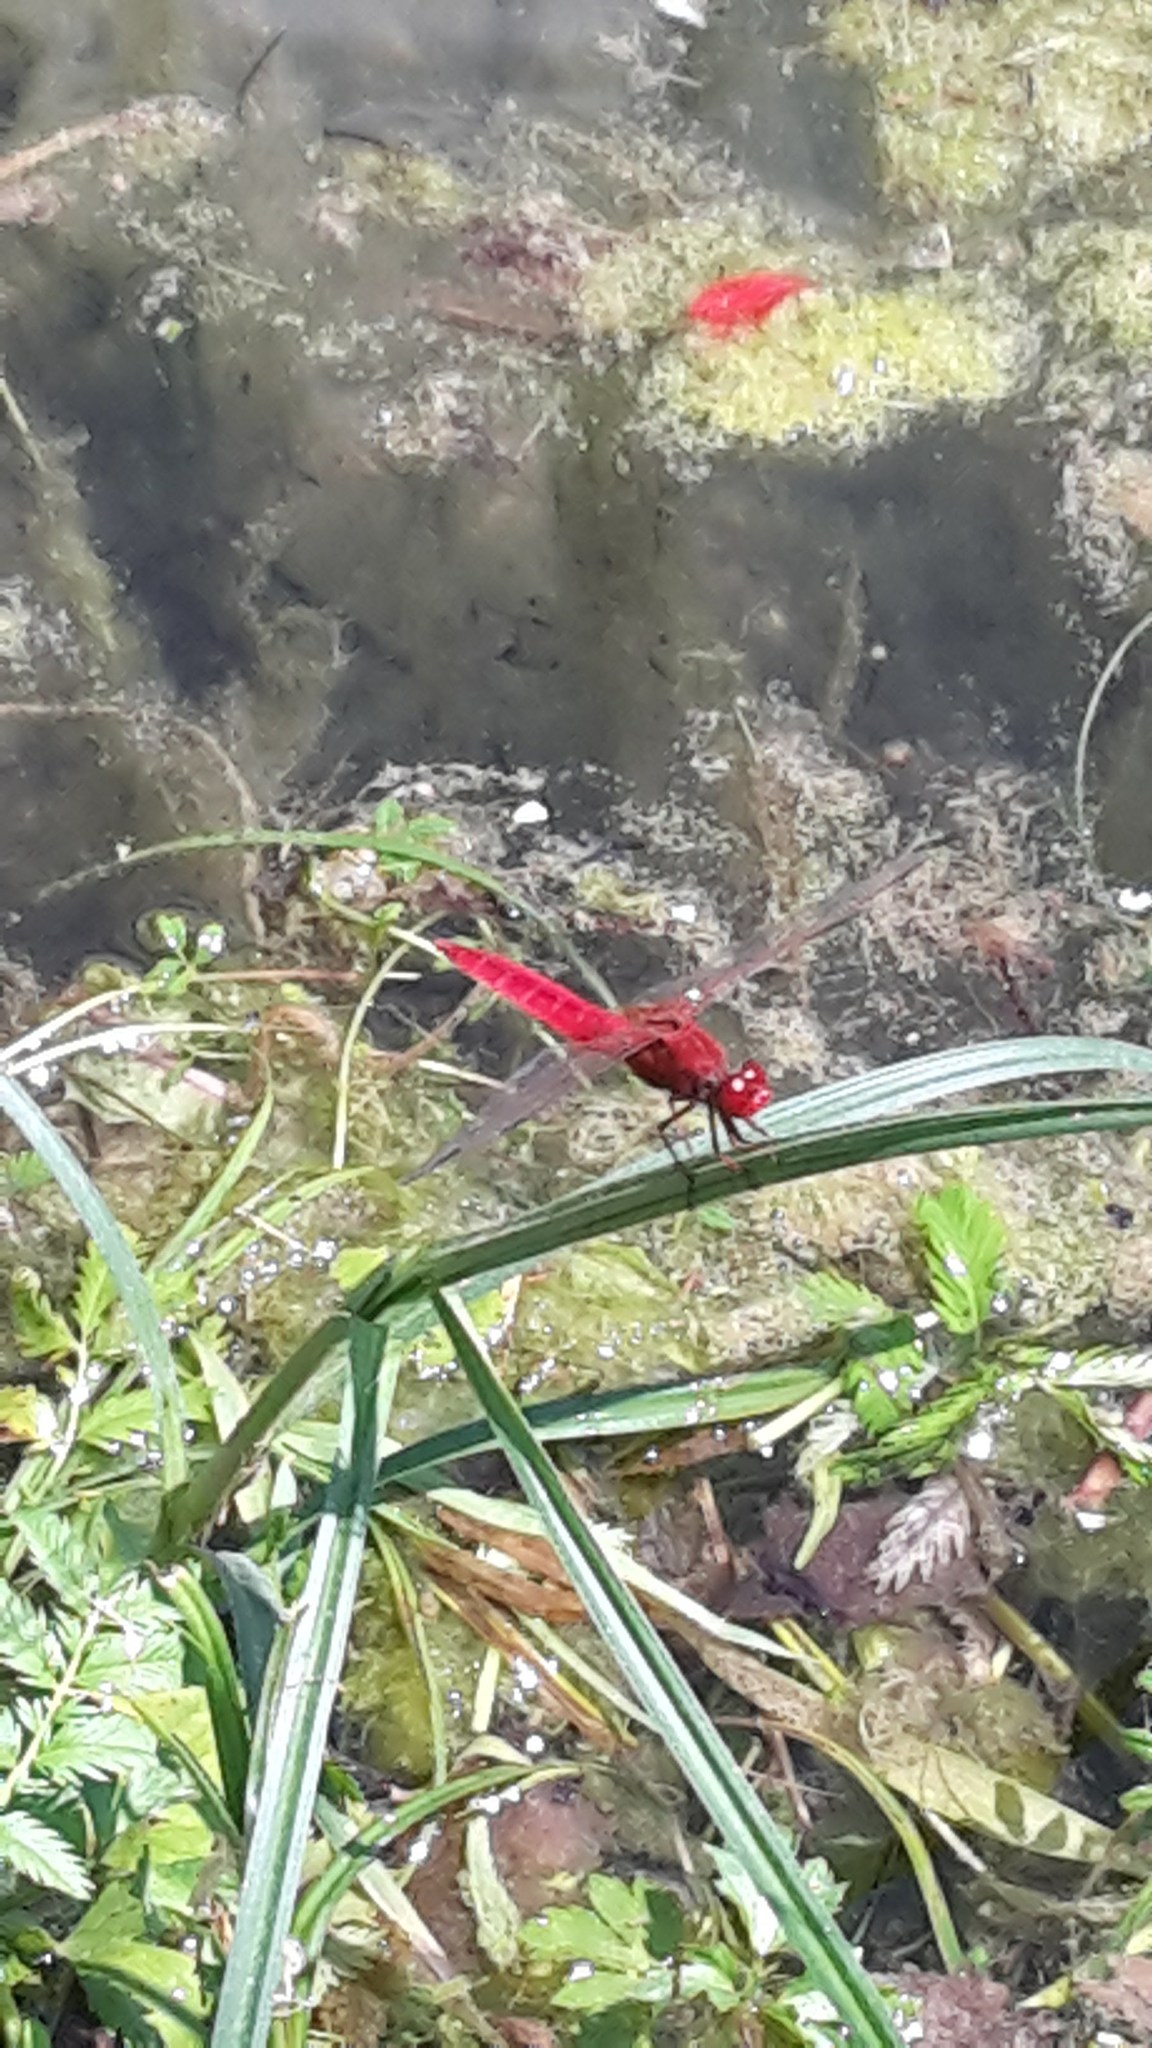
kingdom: Animalia
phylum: Arthropoda
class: Insecta
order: Odonata
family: Libellulidae
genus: Crocothemis
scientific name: Crocothemis erythraea
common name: Scarlet dragonfly
